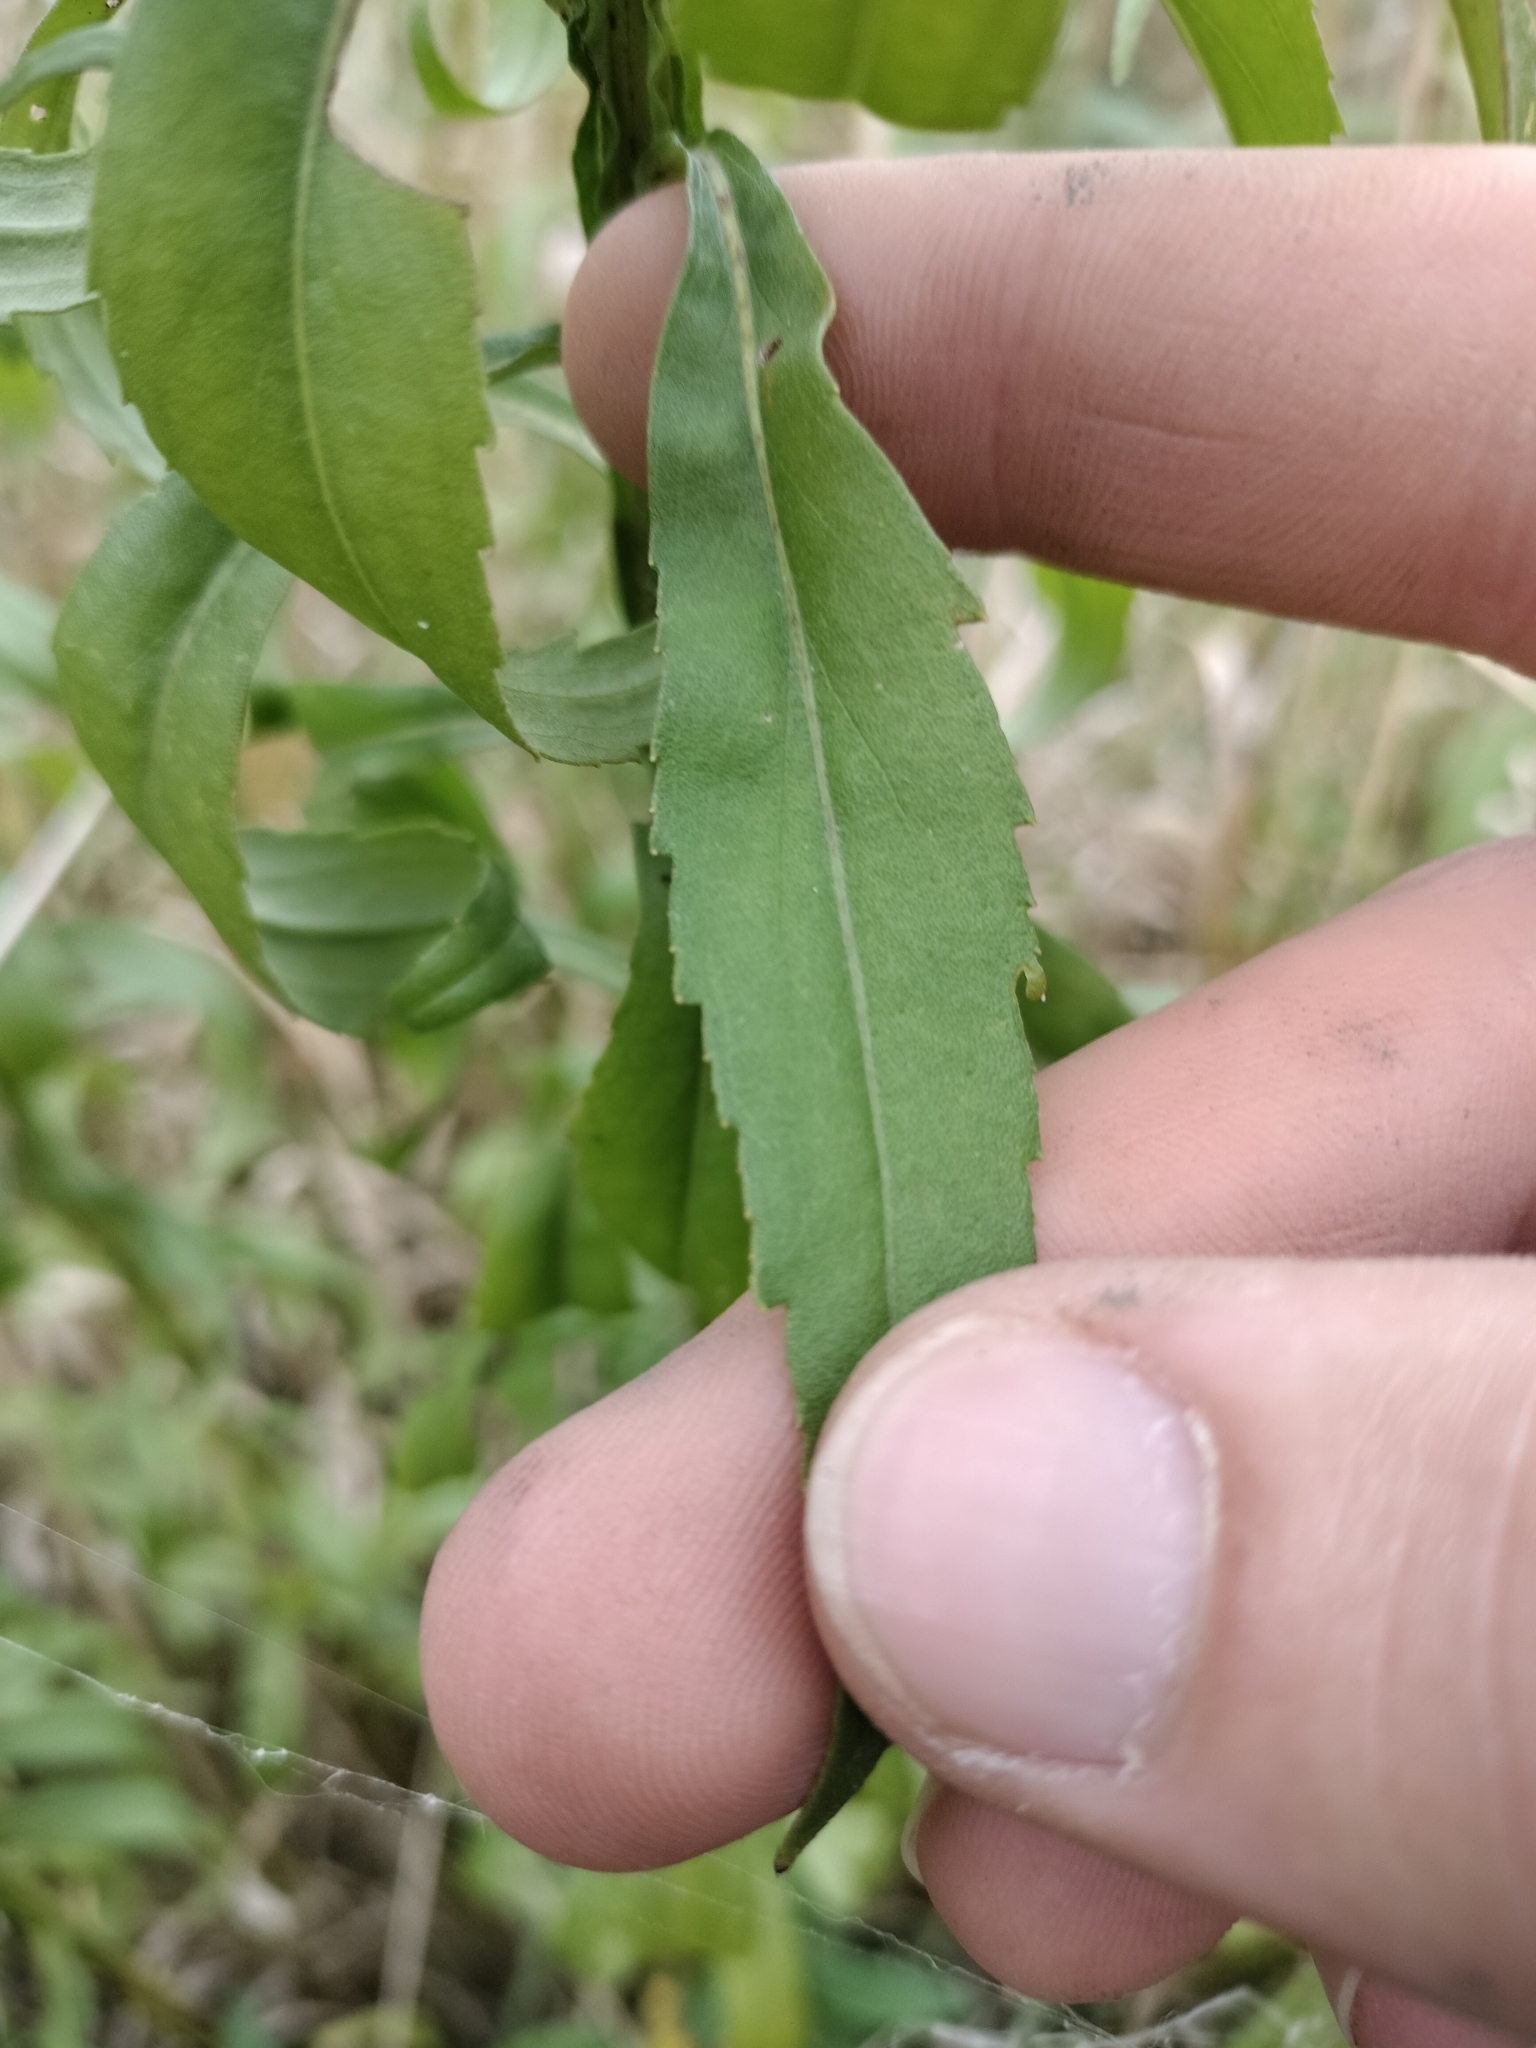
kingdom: Plantae
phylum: Tracheophyta
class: Magnoliopsida
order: Asterales
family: Asteraceae
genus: Helenium
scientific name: Helenium autumnale
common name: Sneezeweed
